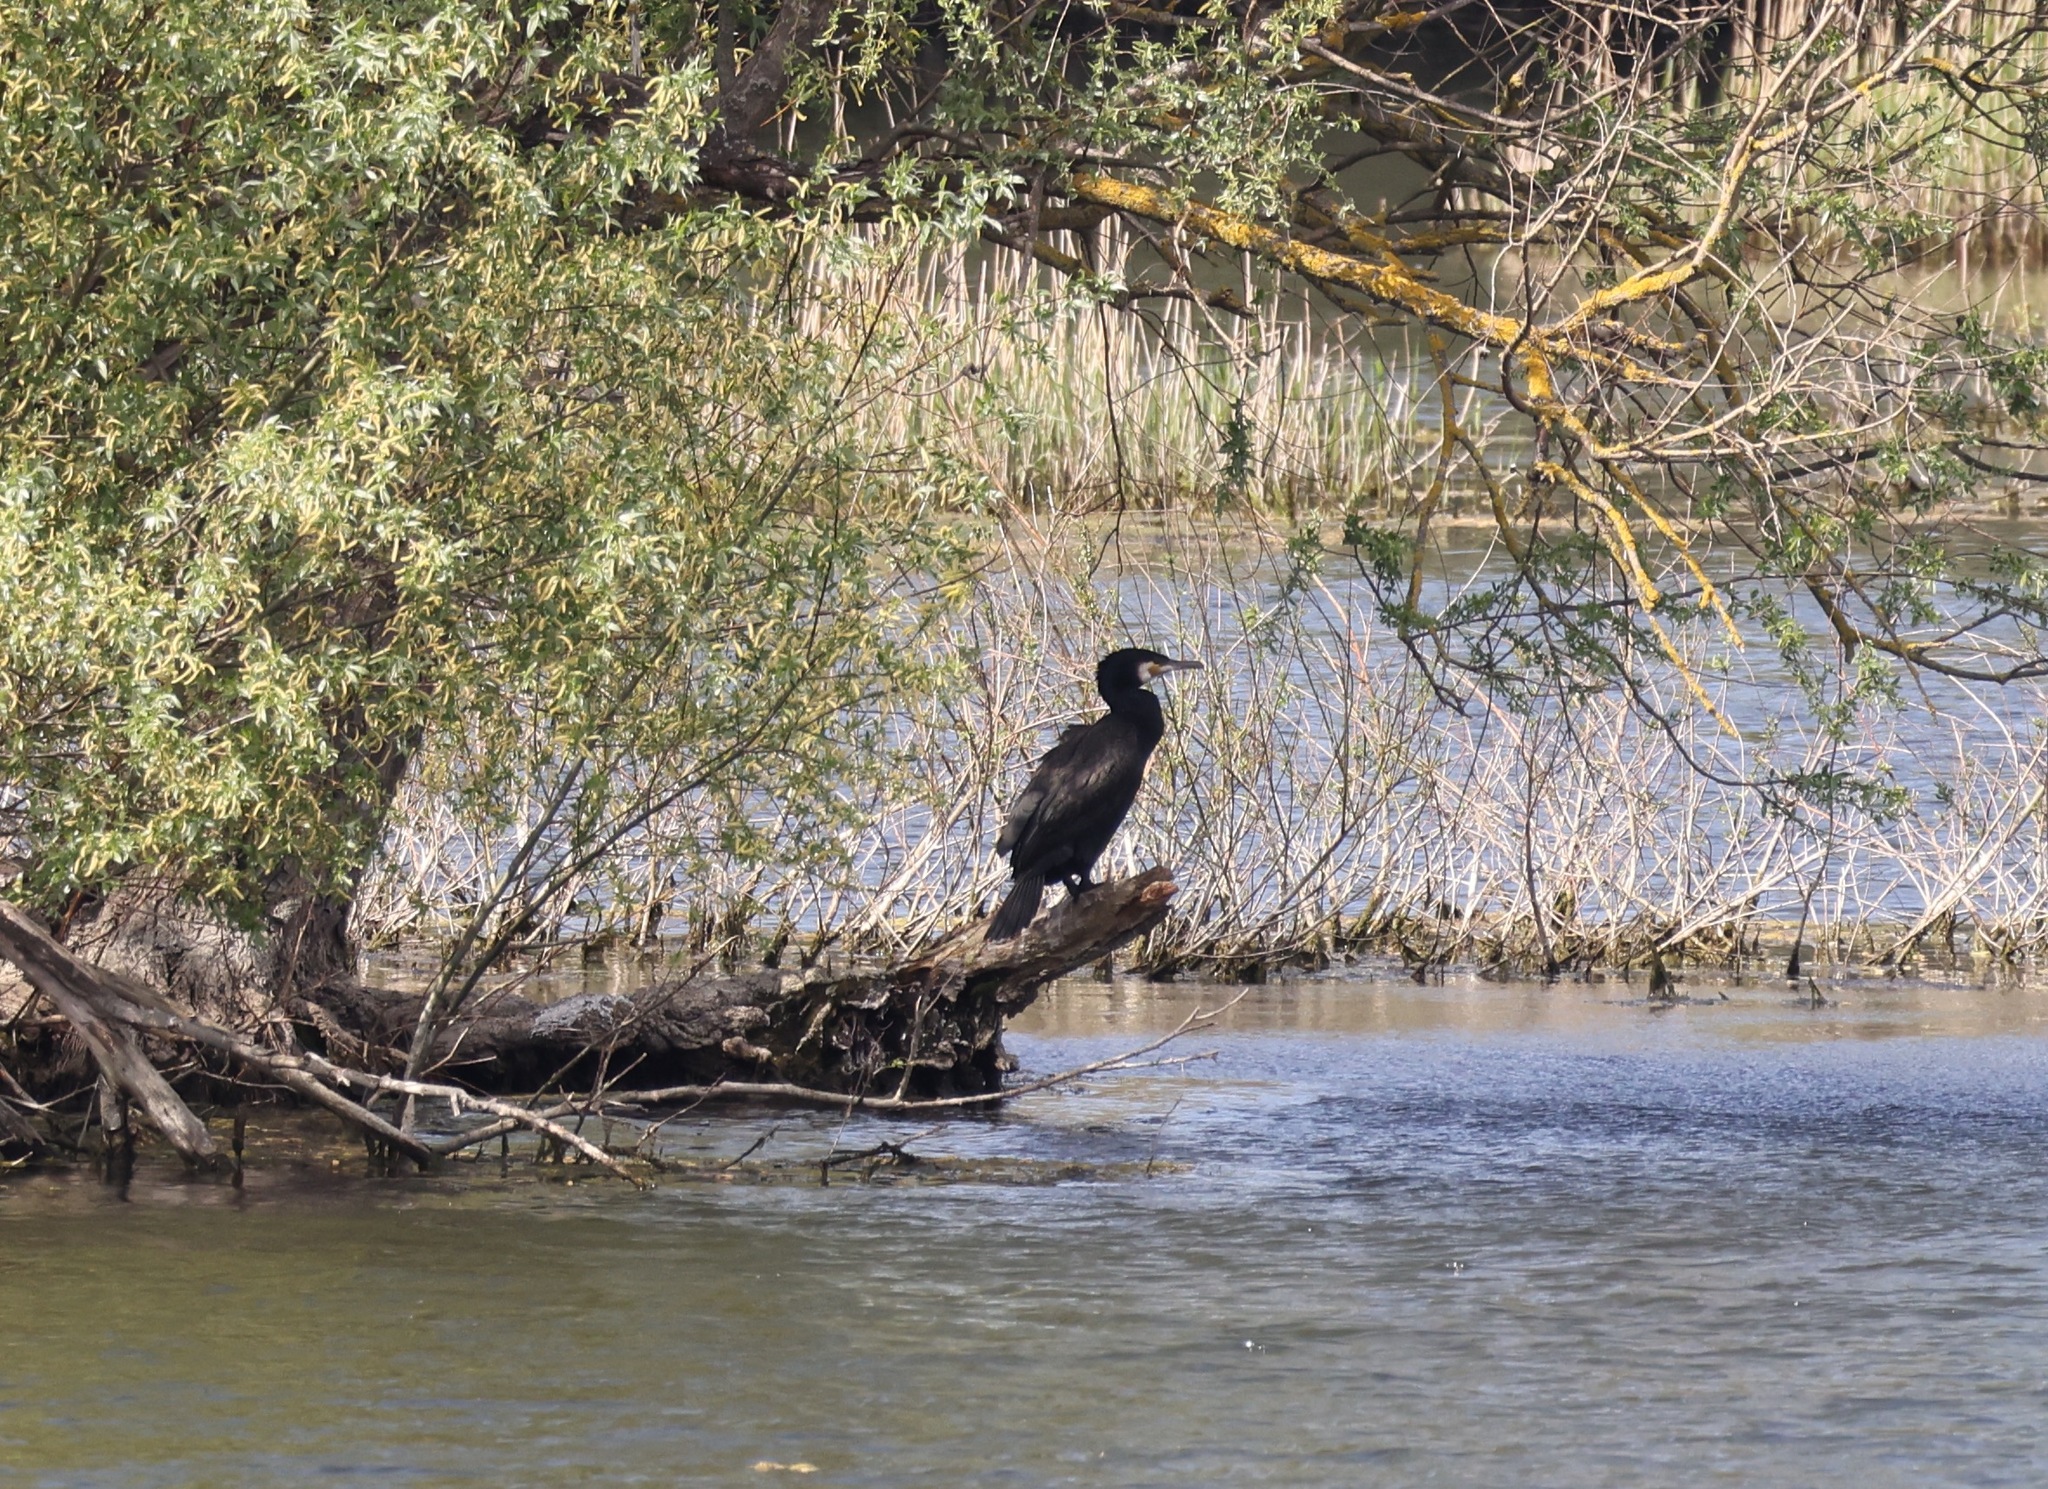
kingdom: Animalia
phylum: Chordata
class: Aves
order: Suliformes
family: Phalacrocoracidae
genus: Phalacrocorax
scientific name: Phalacrocorax carbo
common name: Great cormorant
